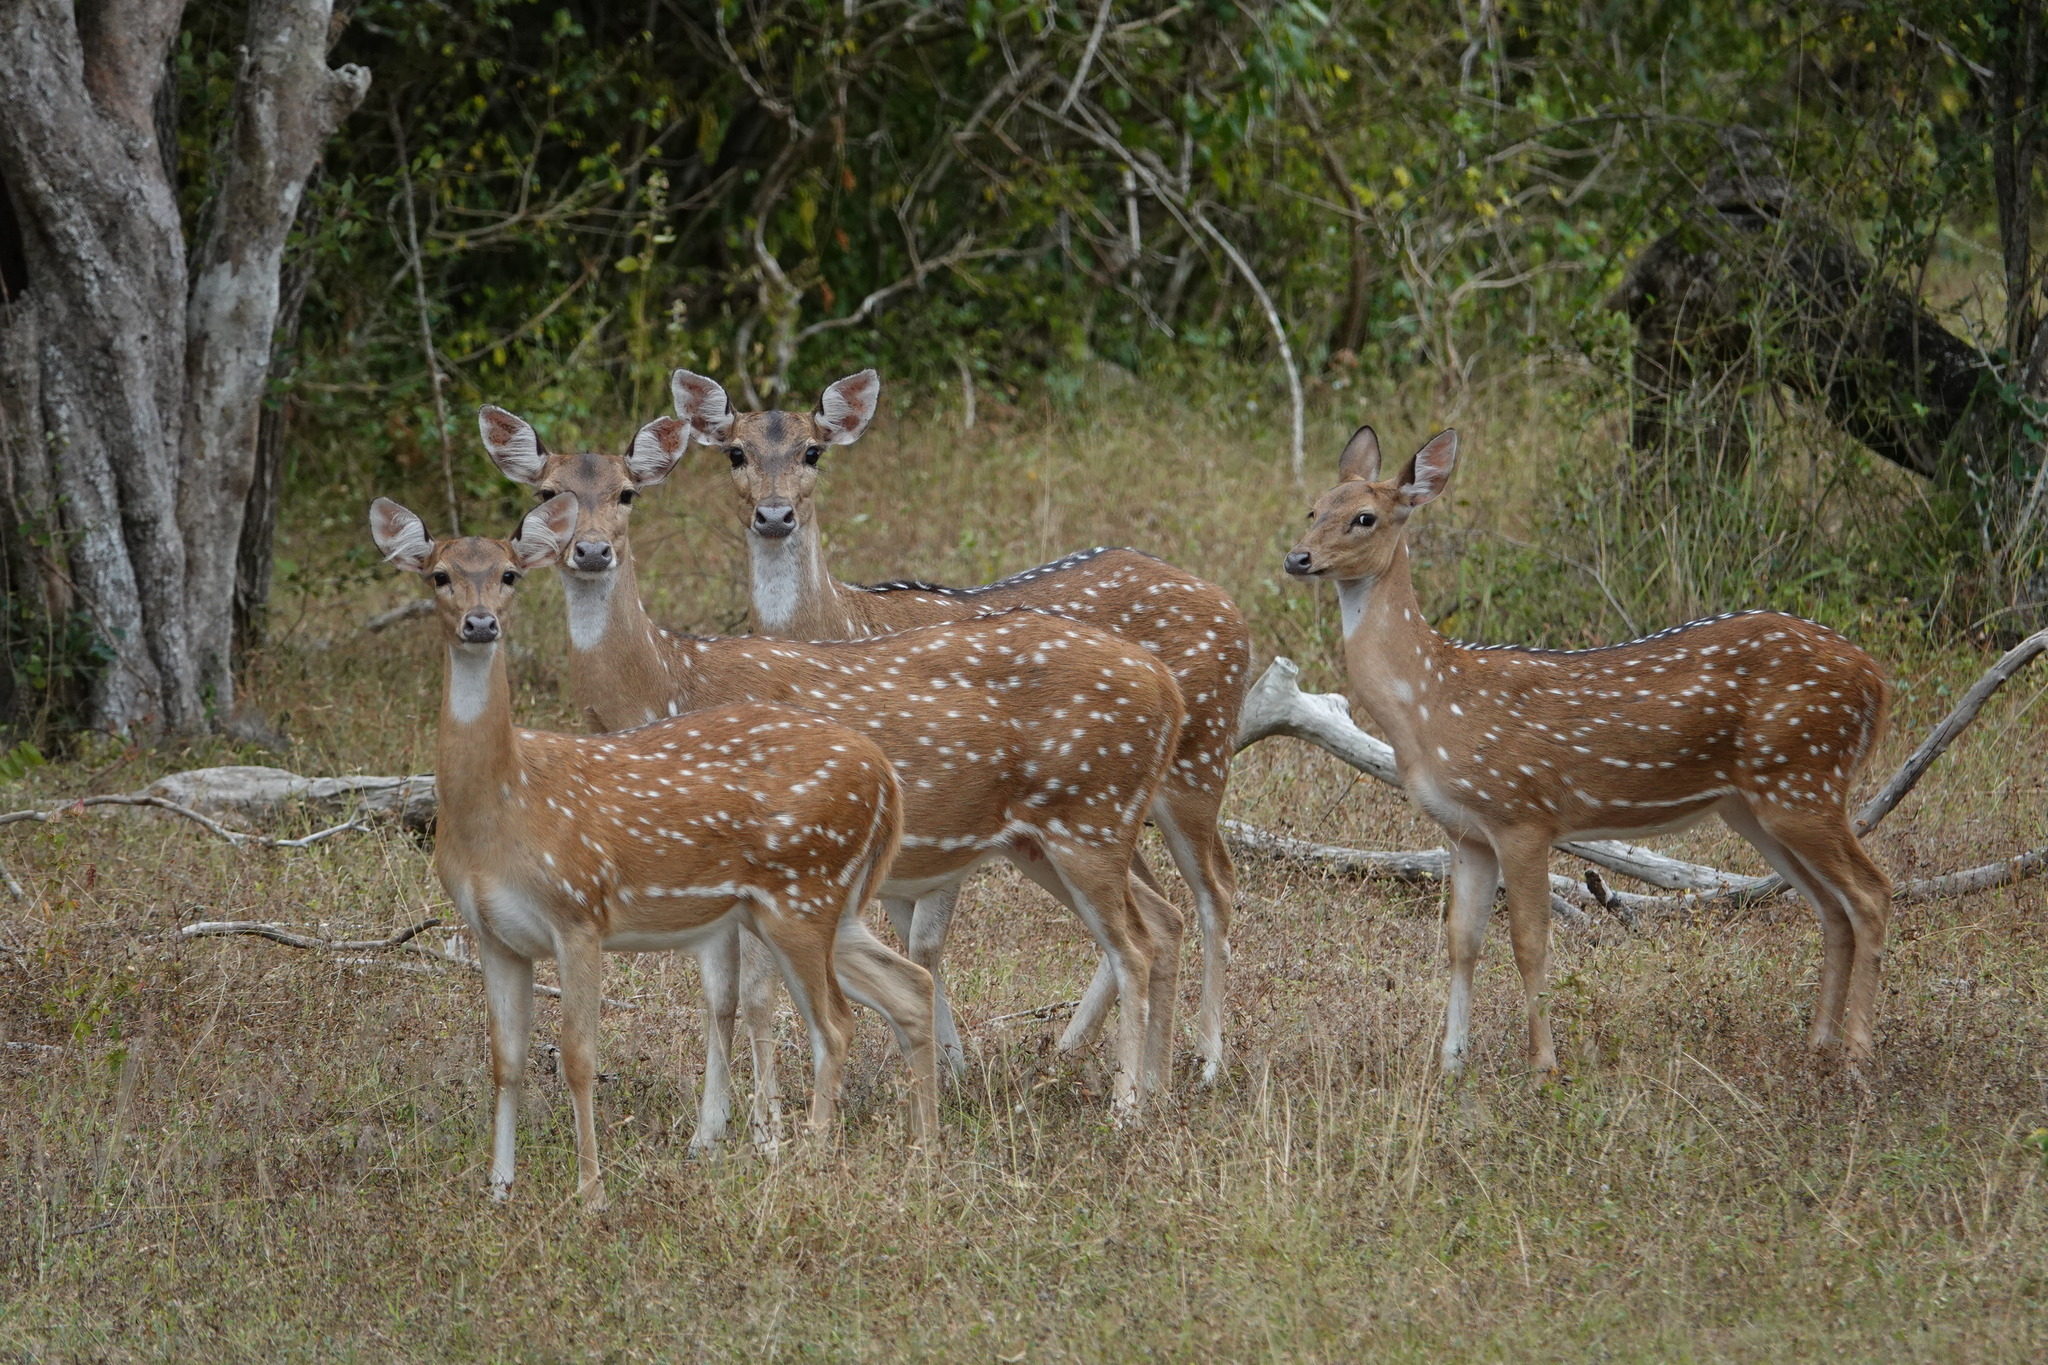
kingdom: Animalia
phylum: Chordata
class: Mammalia
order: Artiodactyla
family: Cervidae
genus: Axis
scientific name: Axis axis
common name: Chital
